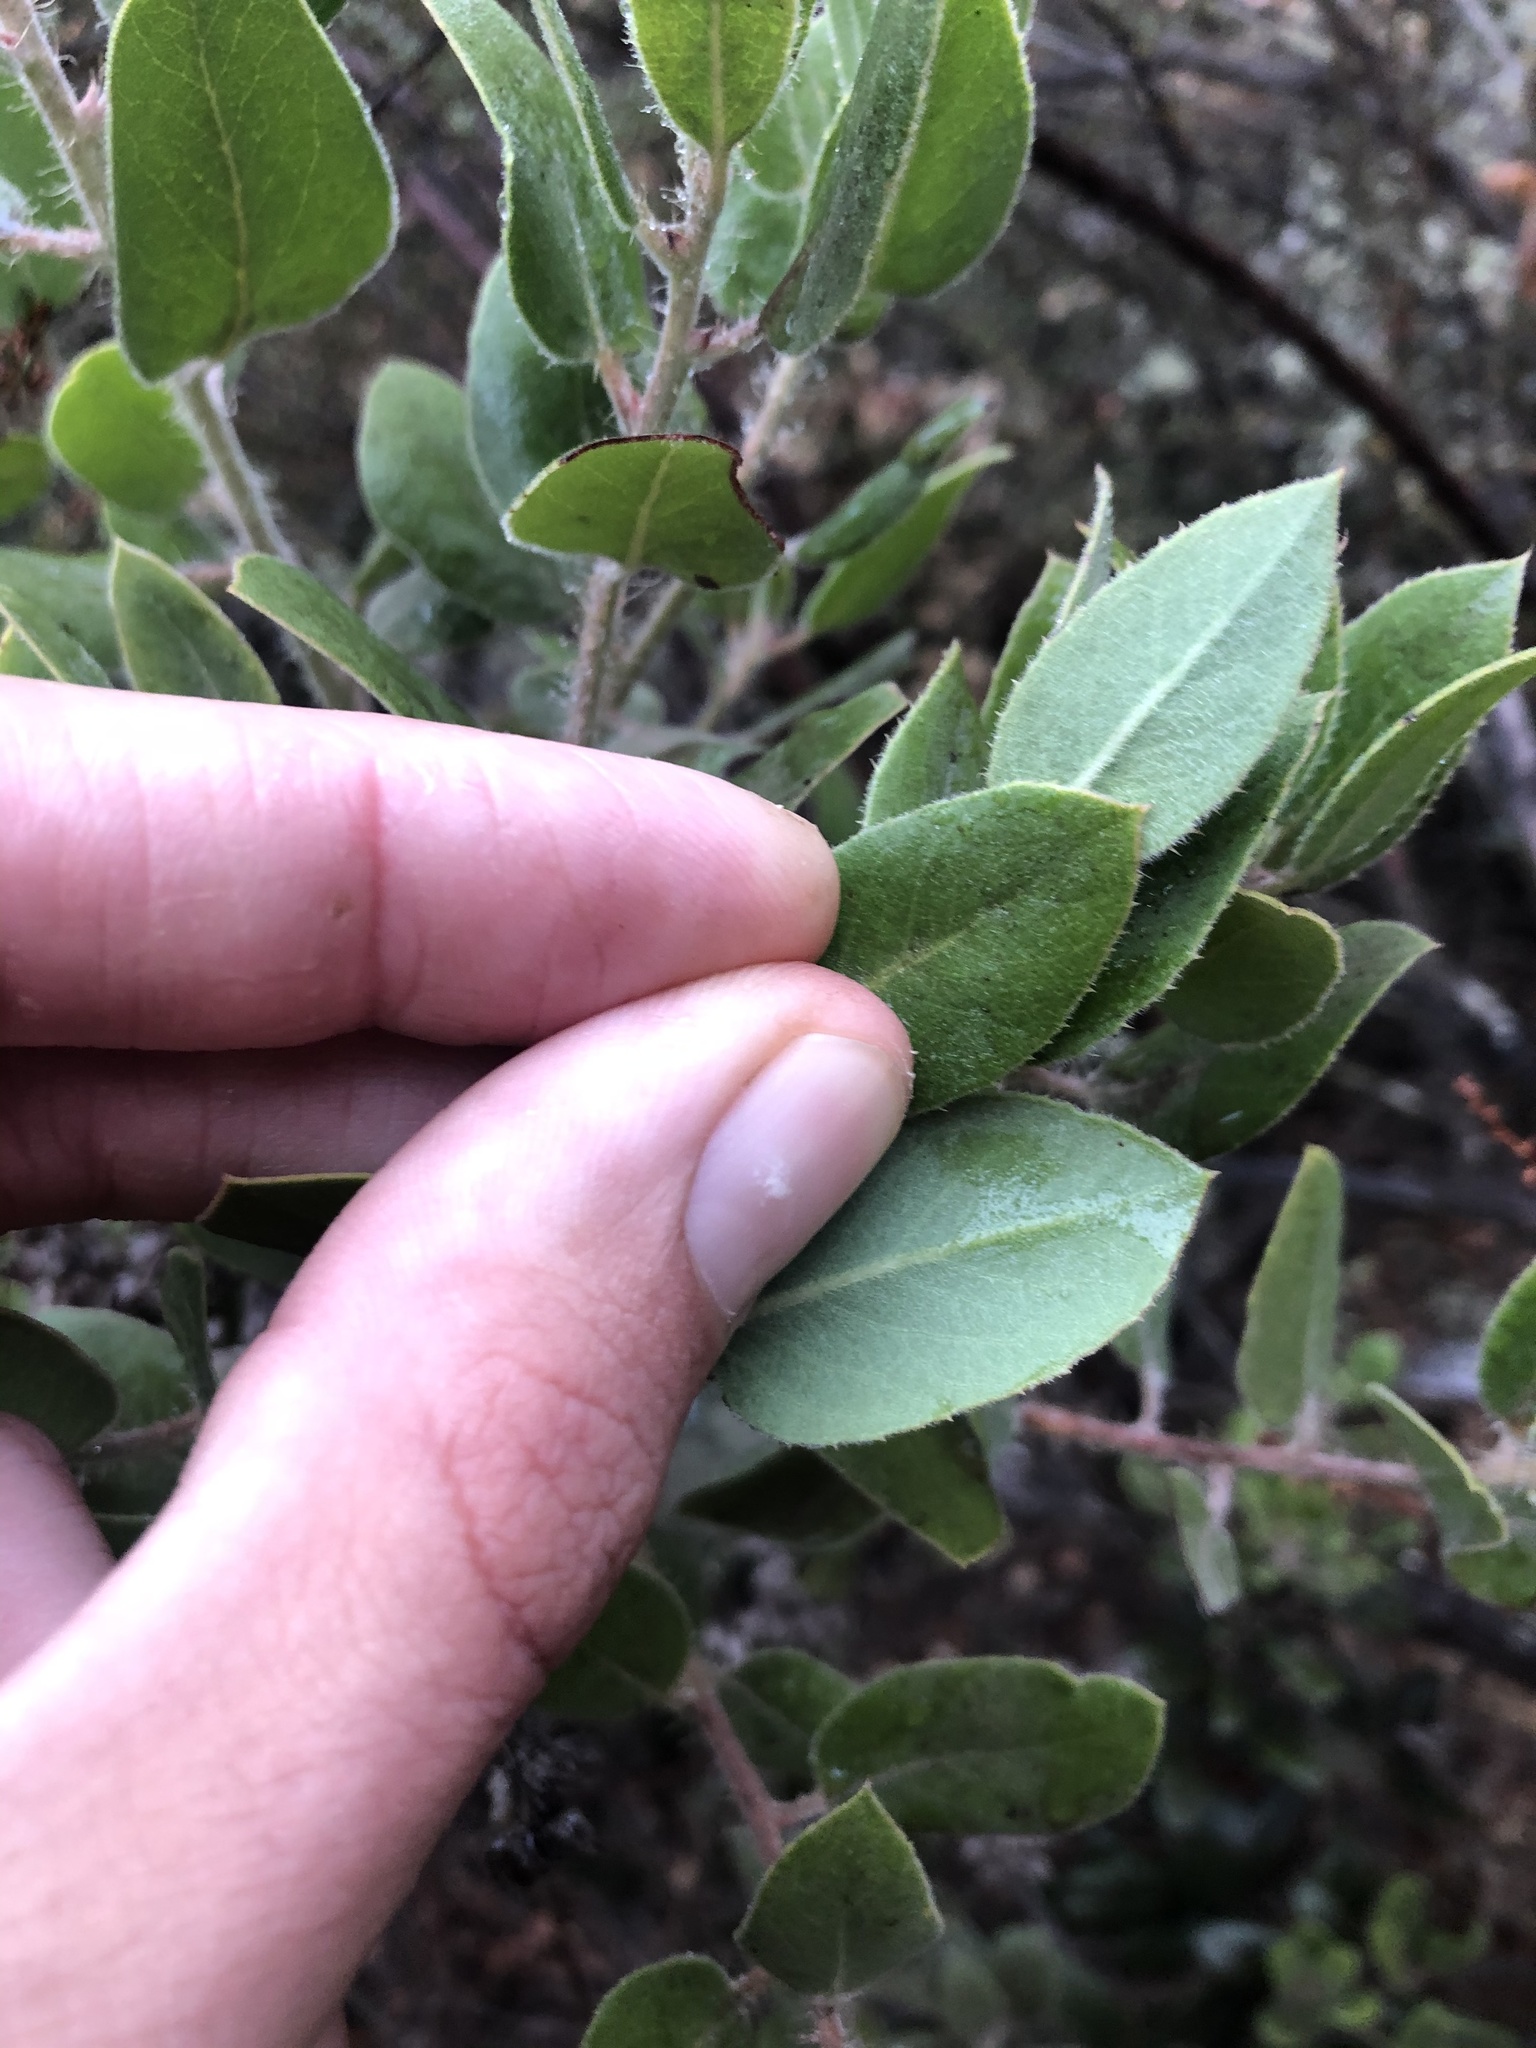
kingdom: Plantae
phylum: Tracheophyta
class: Magnoliopsida
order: Ericales
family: Ericaceae
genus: Arctostaphylos
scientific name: Arctostaphylos crustacea
